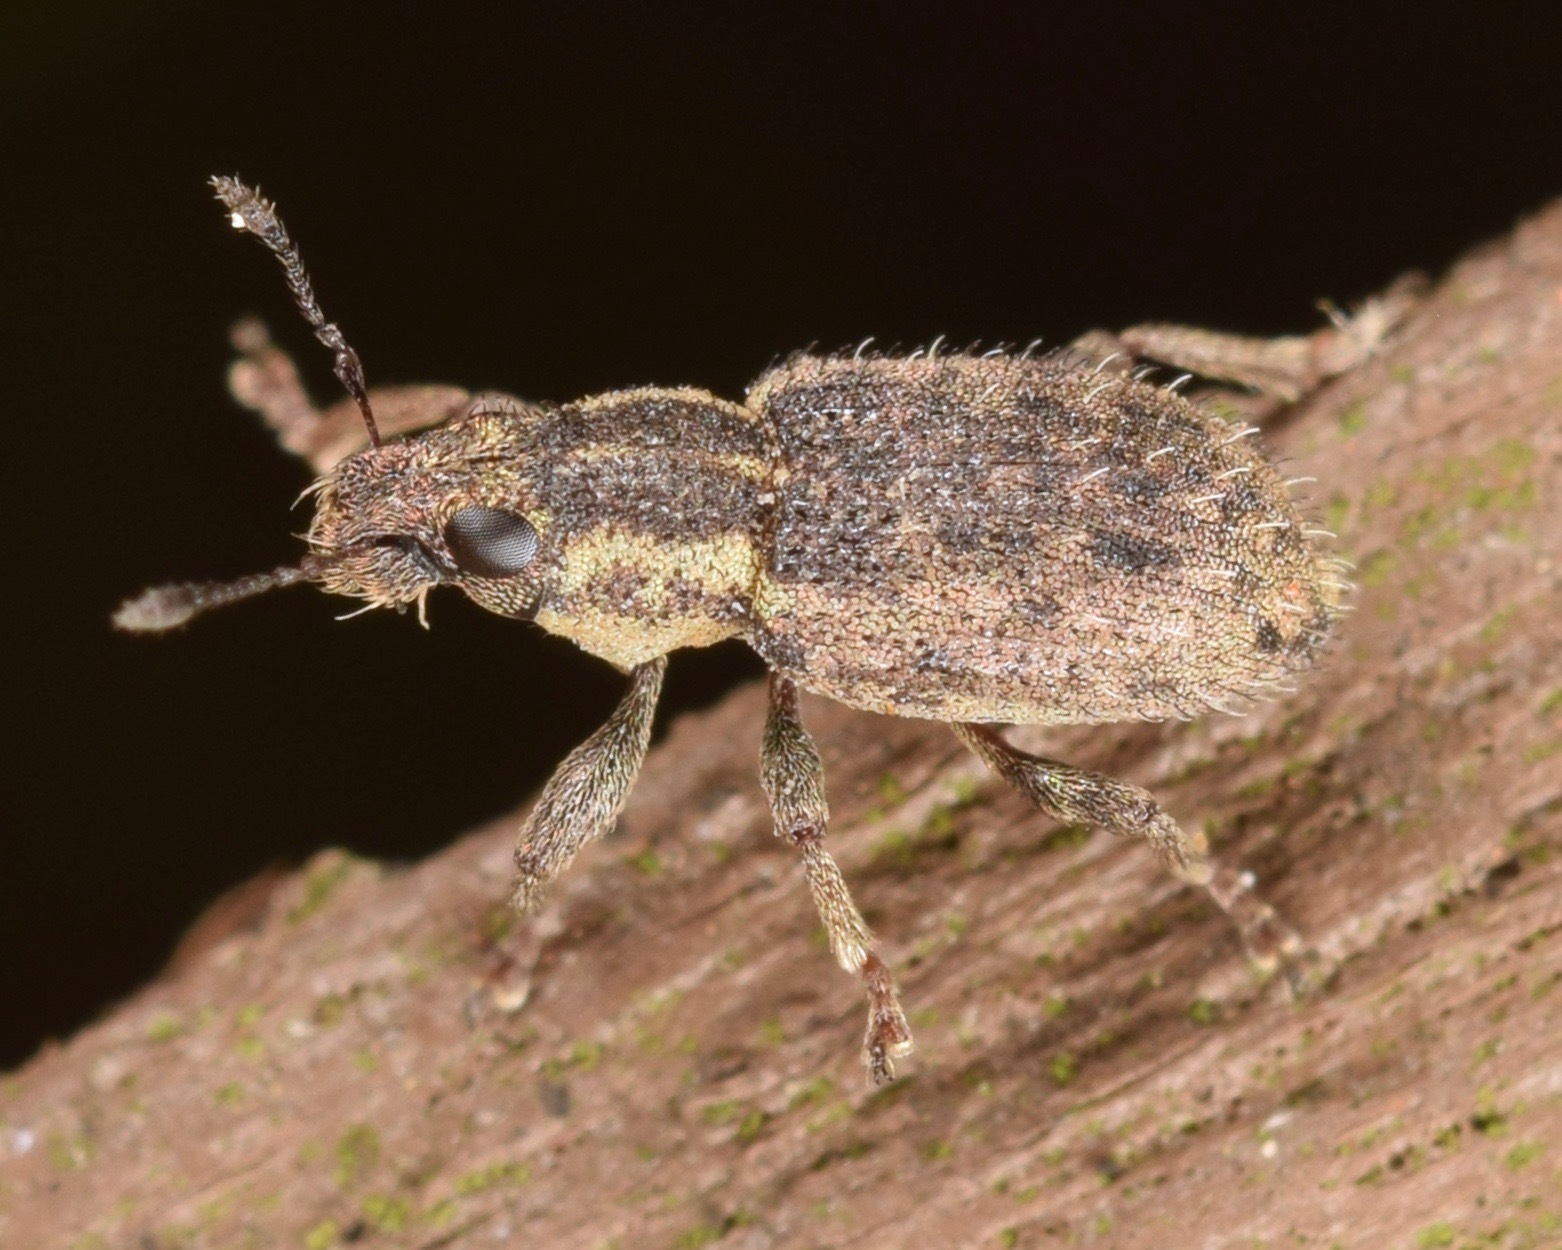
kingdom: Animalia
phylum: Arthropoda
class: Insecta
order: Coleoptera
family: Curculionidae
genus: Sitona
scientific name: Sitona hispidulus
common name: Clover weevil
